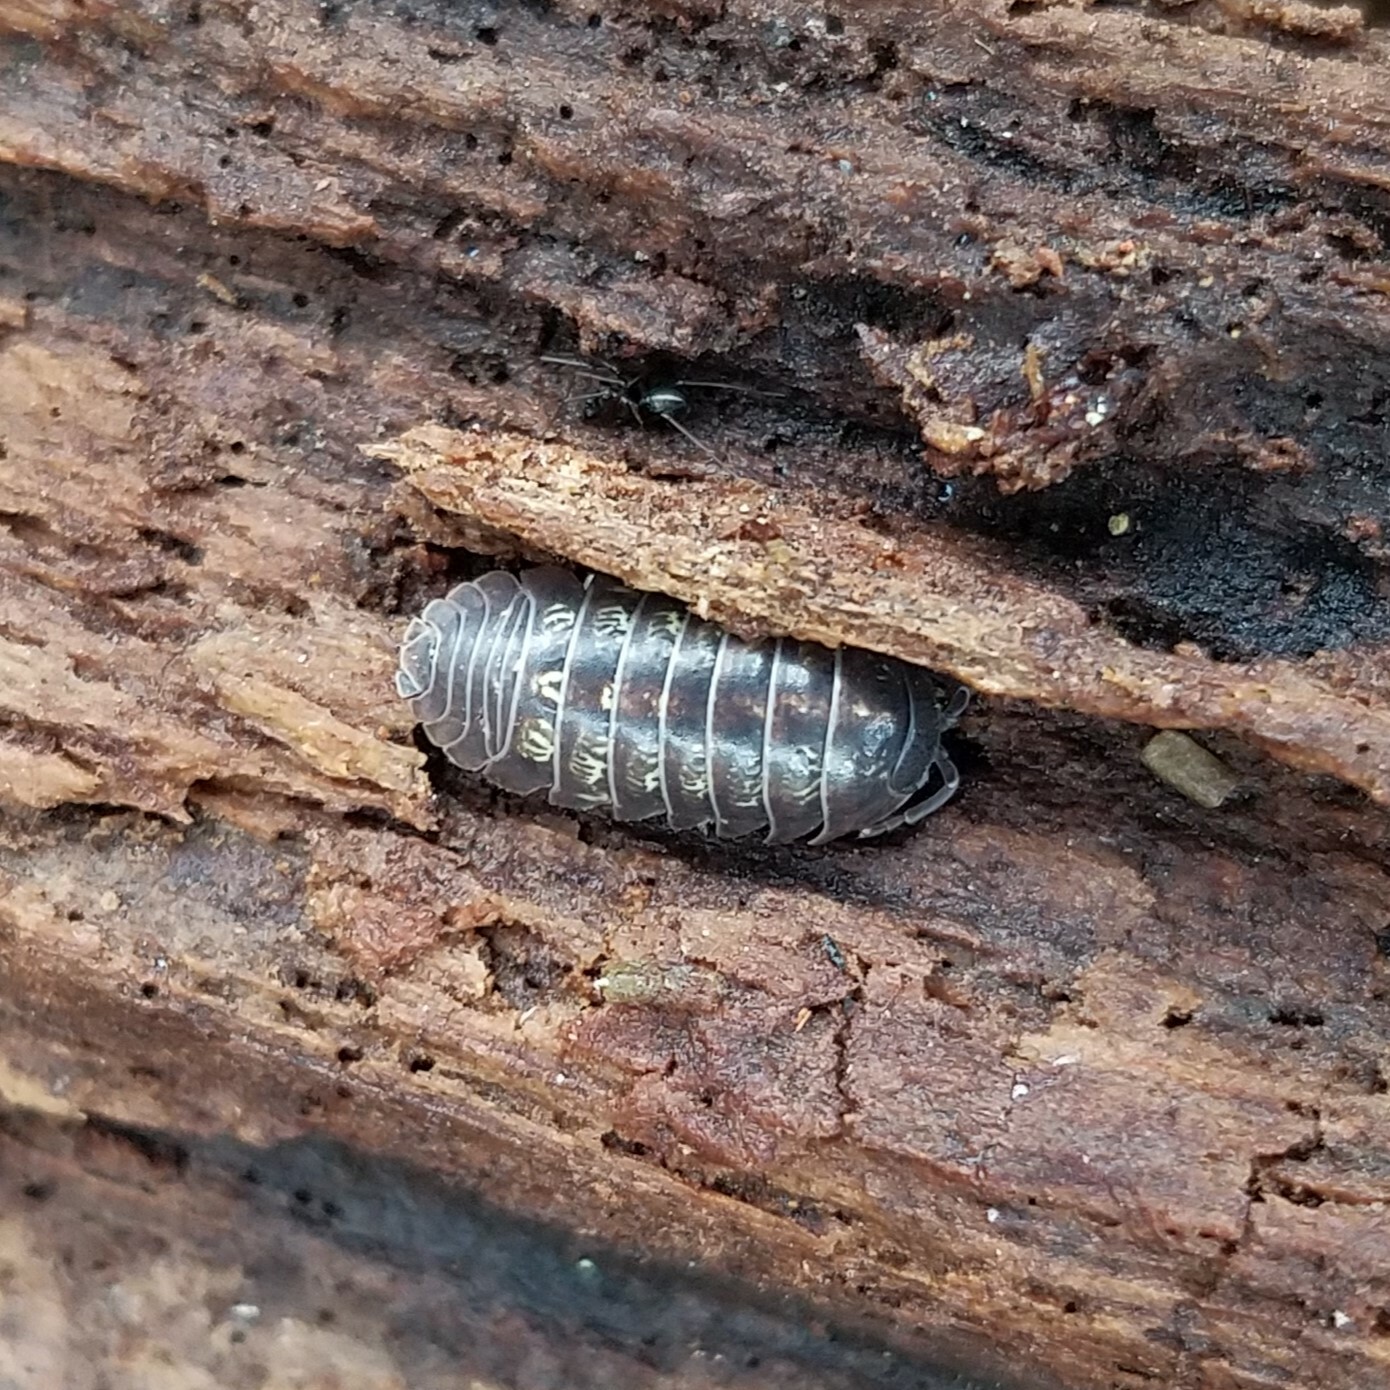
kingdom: Animalia
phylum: Arthropoda
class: Malacostraca
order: Isopoda
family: Armadillidiidae
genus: Armadillidium
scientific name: Armadillidium vulgare
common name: Common pill woodlouse
